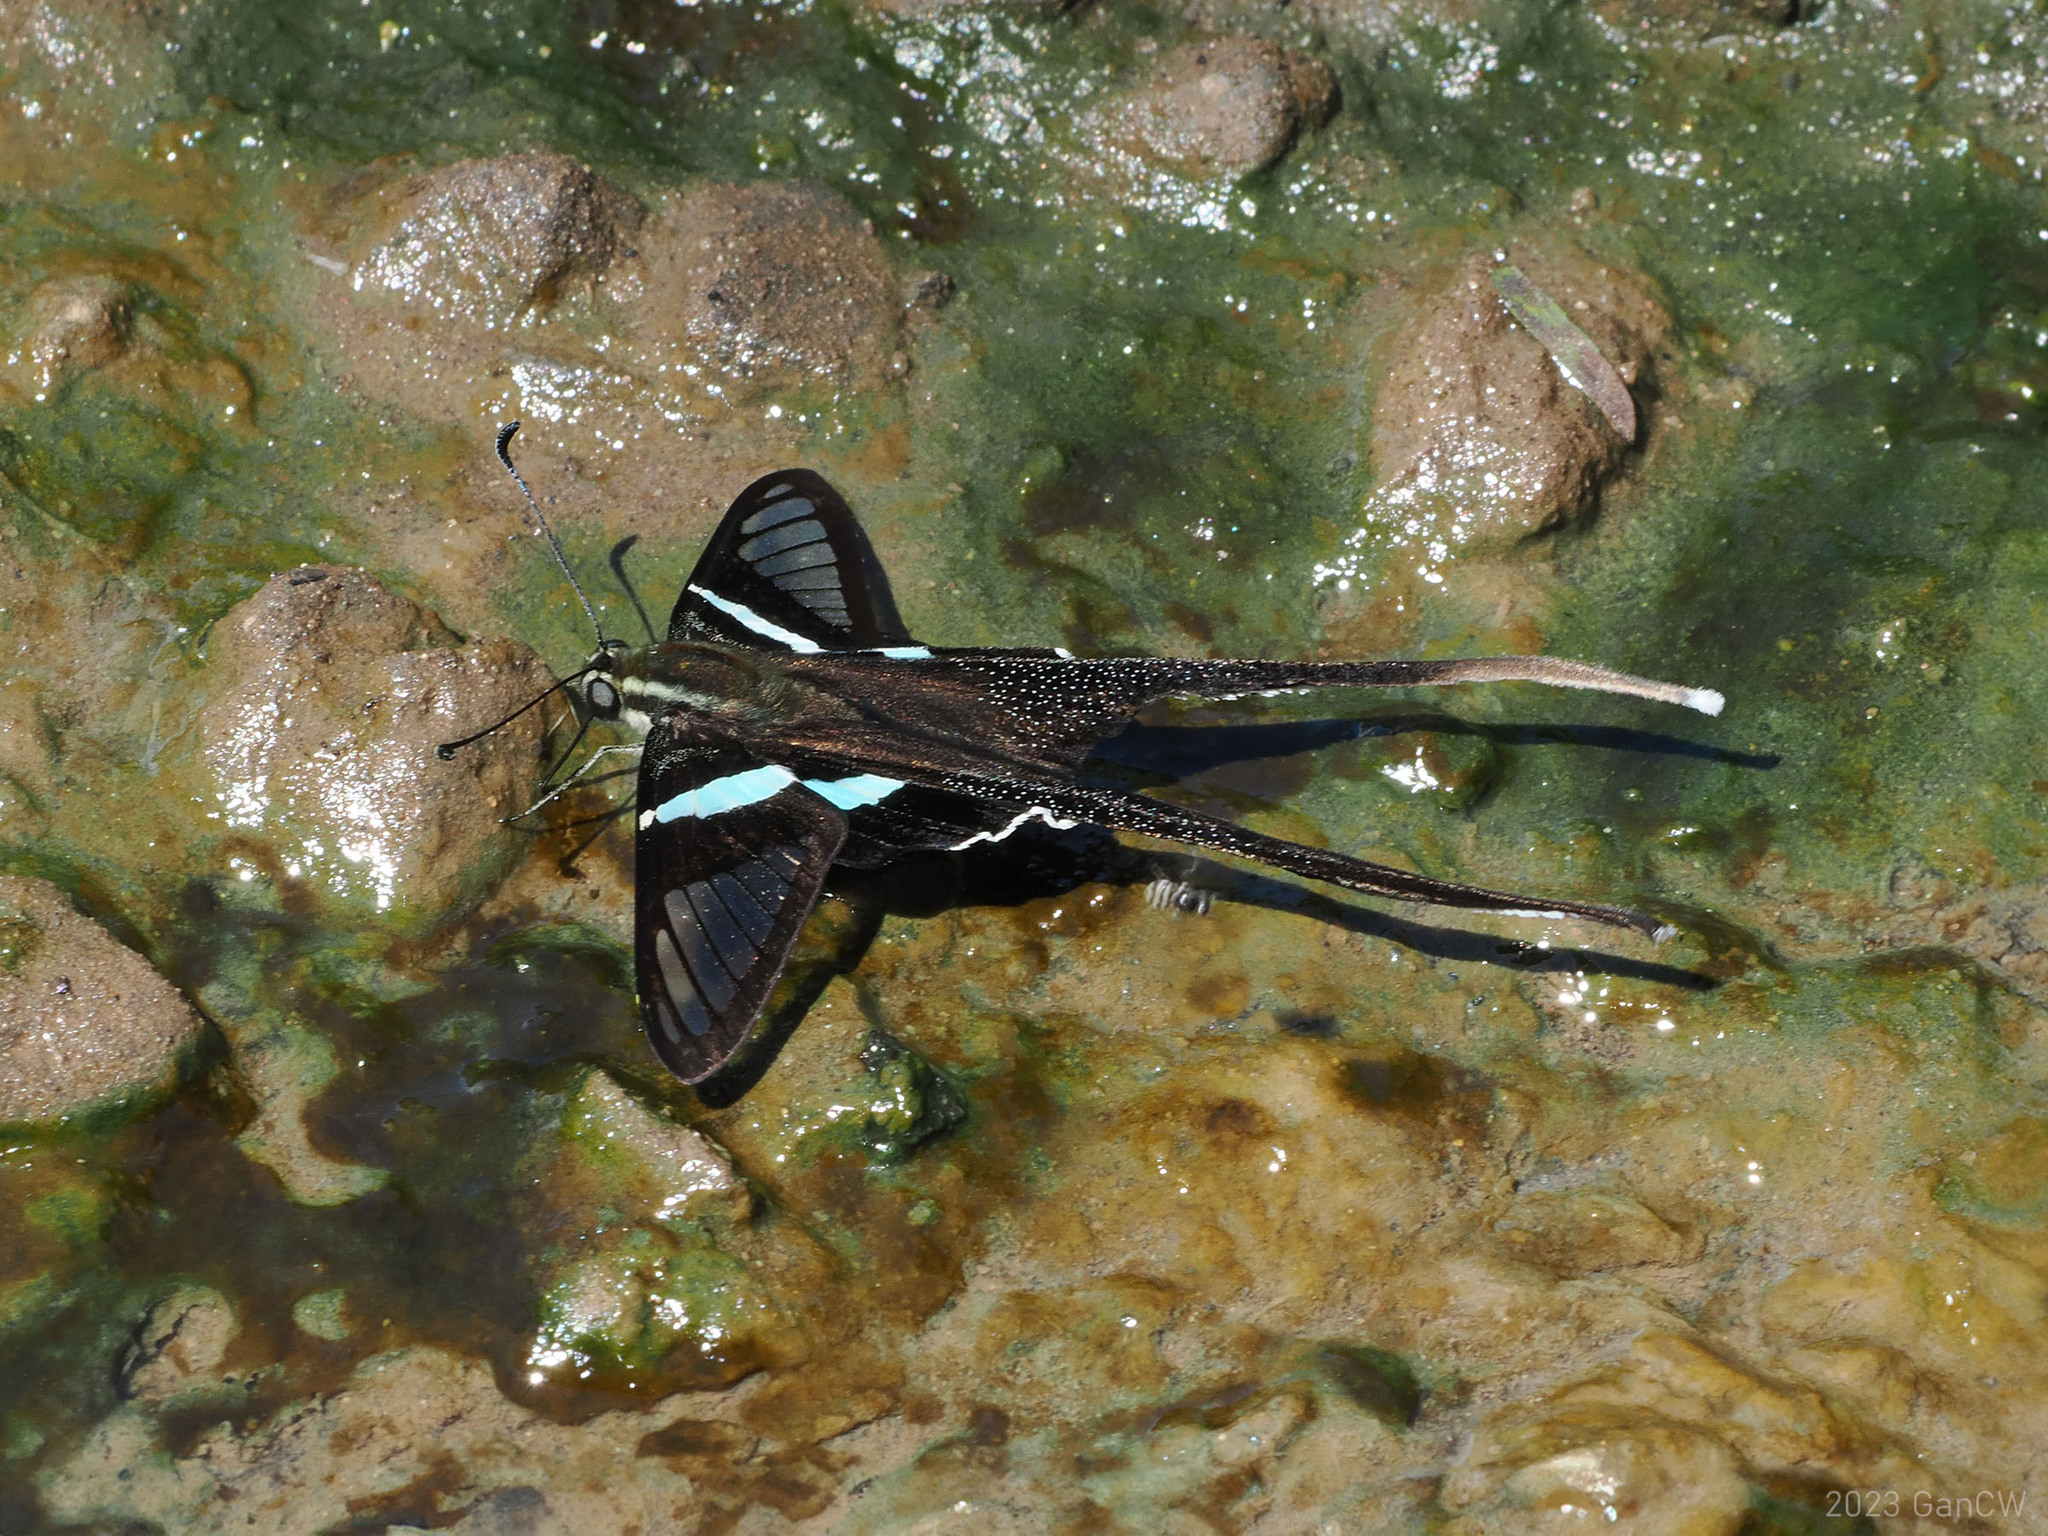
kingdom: Animalia
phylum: Arthropoda
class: Insecta
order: Lepidoptera
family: Papilionidae
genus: Lamproptera
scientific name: Lamproptera meges
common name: Green dragontail
